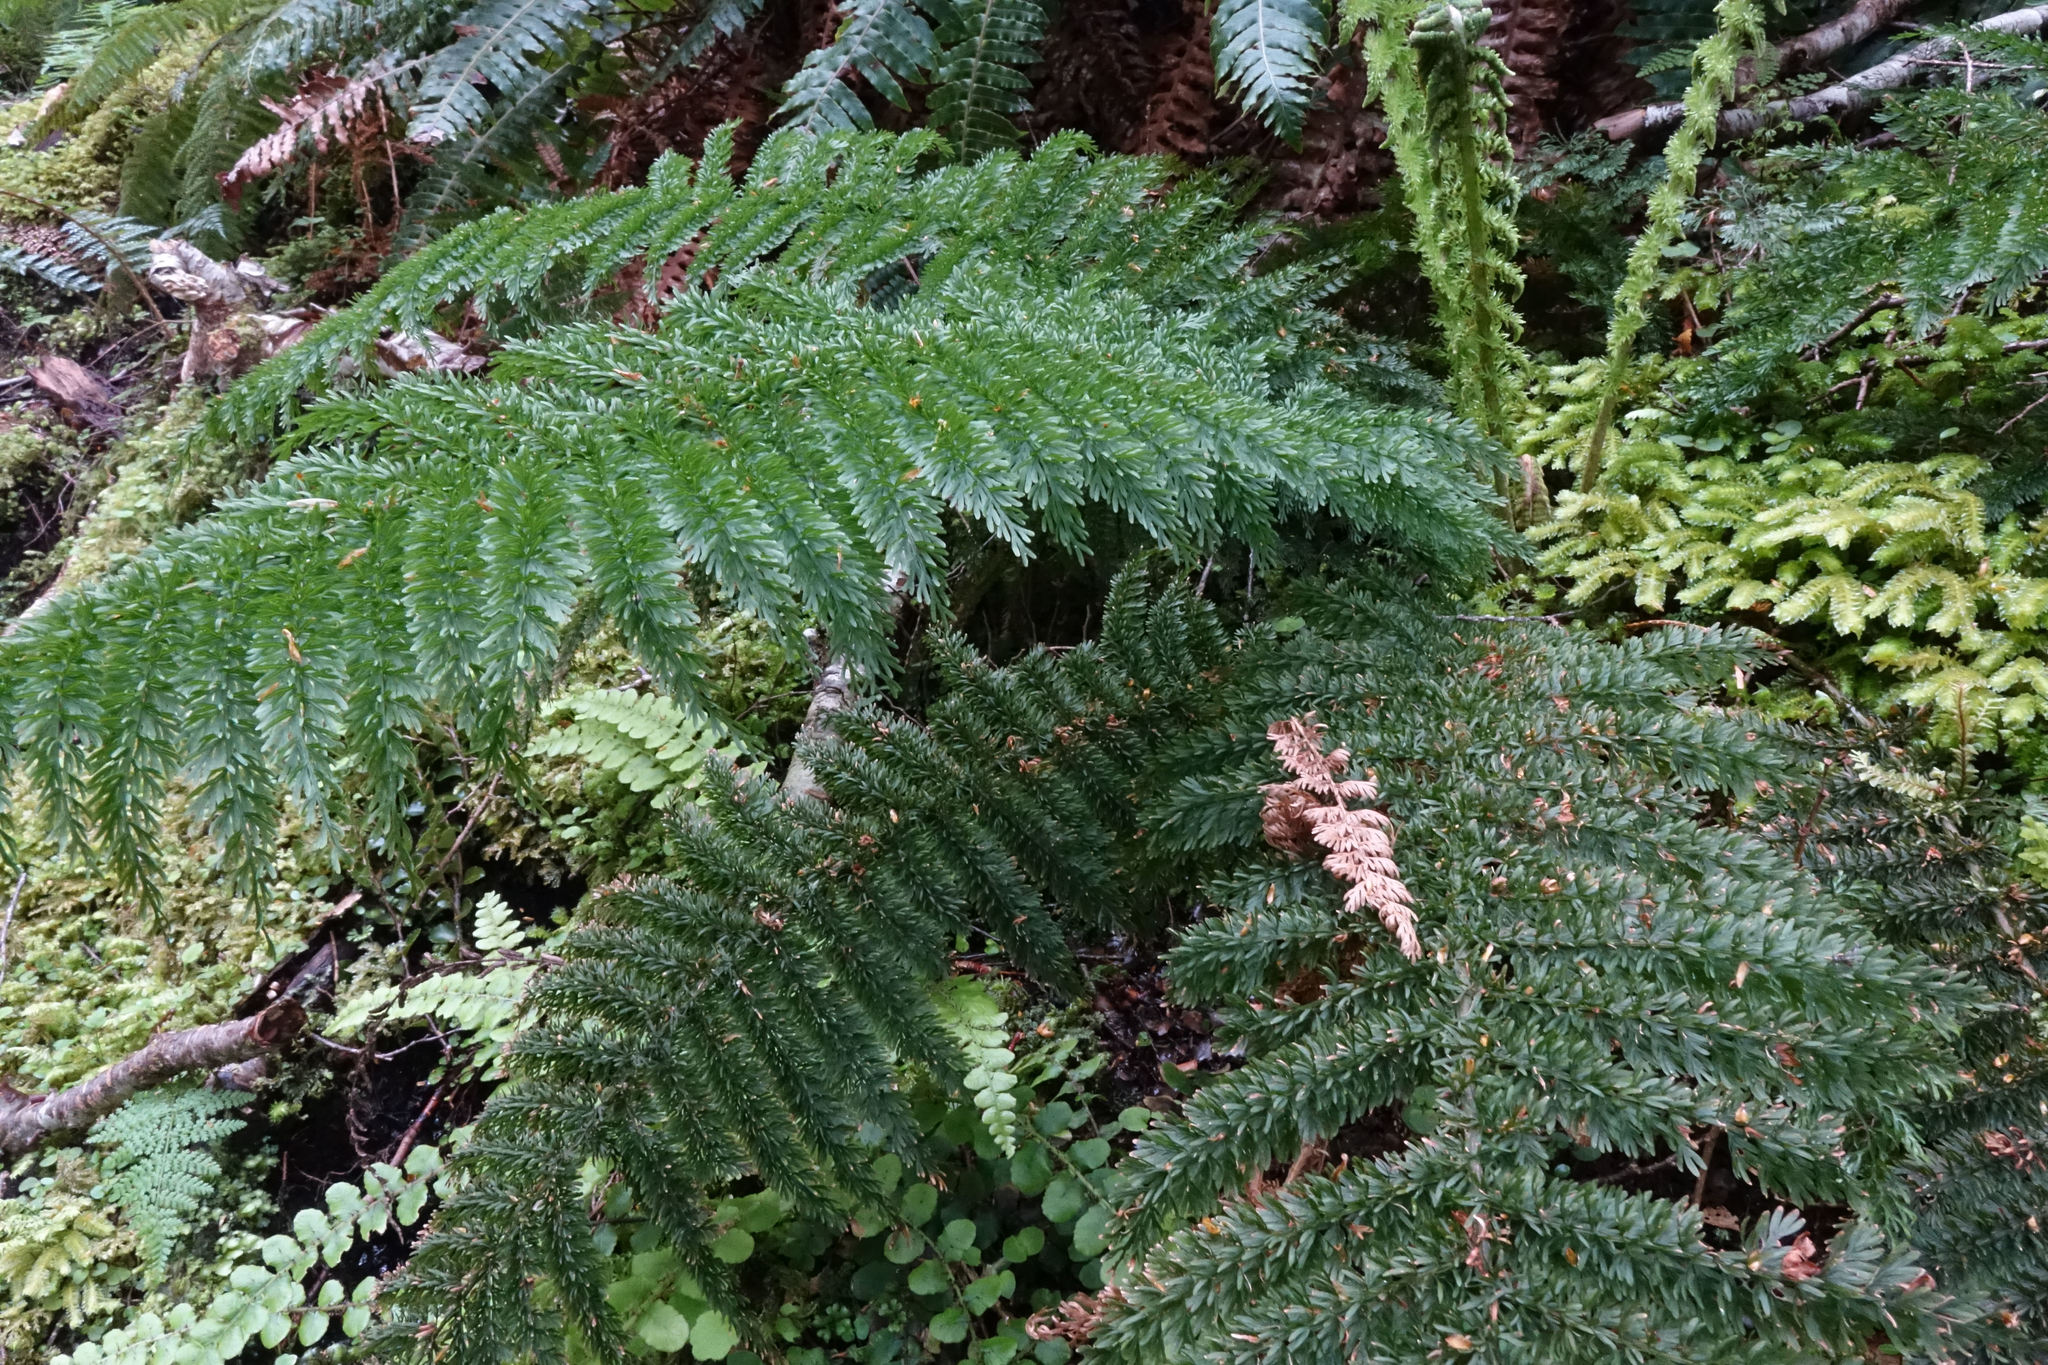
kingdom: Plantae
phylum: Tracheophyta
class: Polypodiopsida
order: Osmundales
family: Osmundaceae
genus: Leptopteris
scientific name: Leptopteris superba
